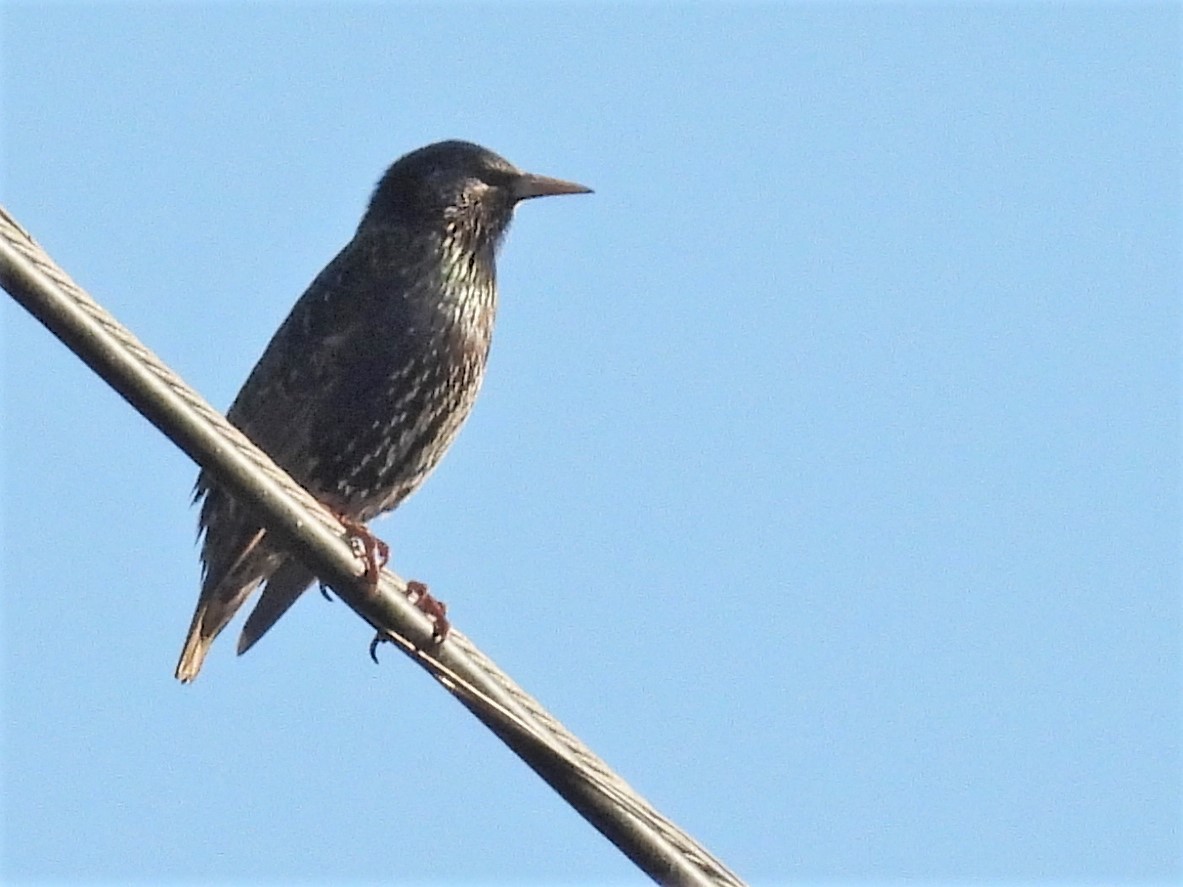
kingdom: Animalia
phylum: Chordata
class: Aves
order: Passeriformes
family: Sturnidae
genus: Sturnus
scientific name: Sturnus vulgaris
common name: Common starling
